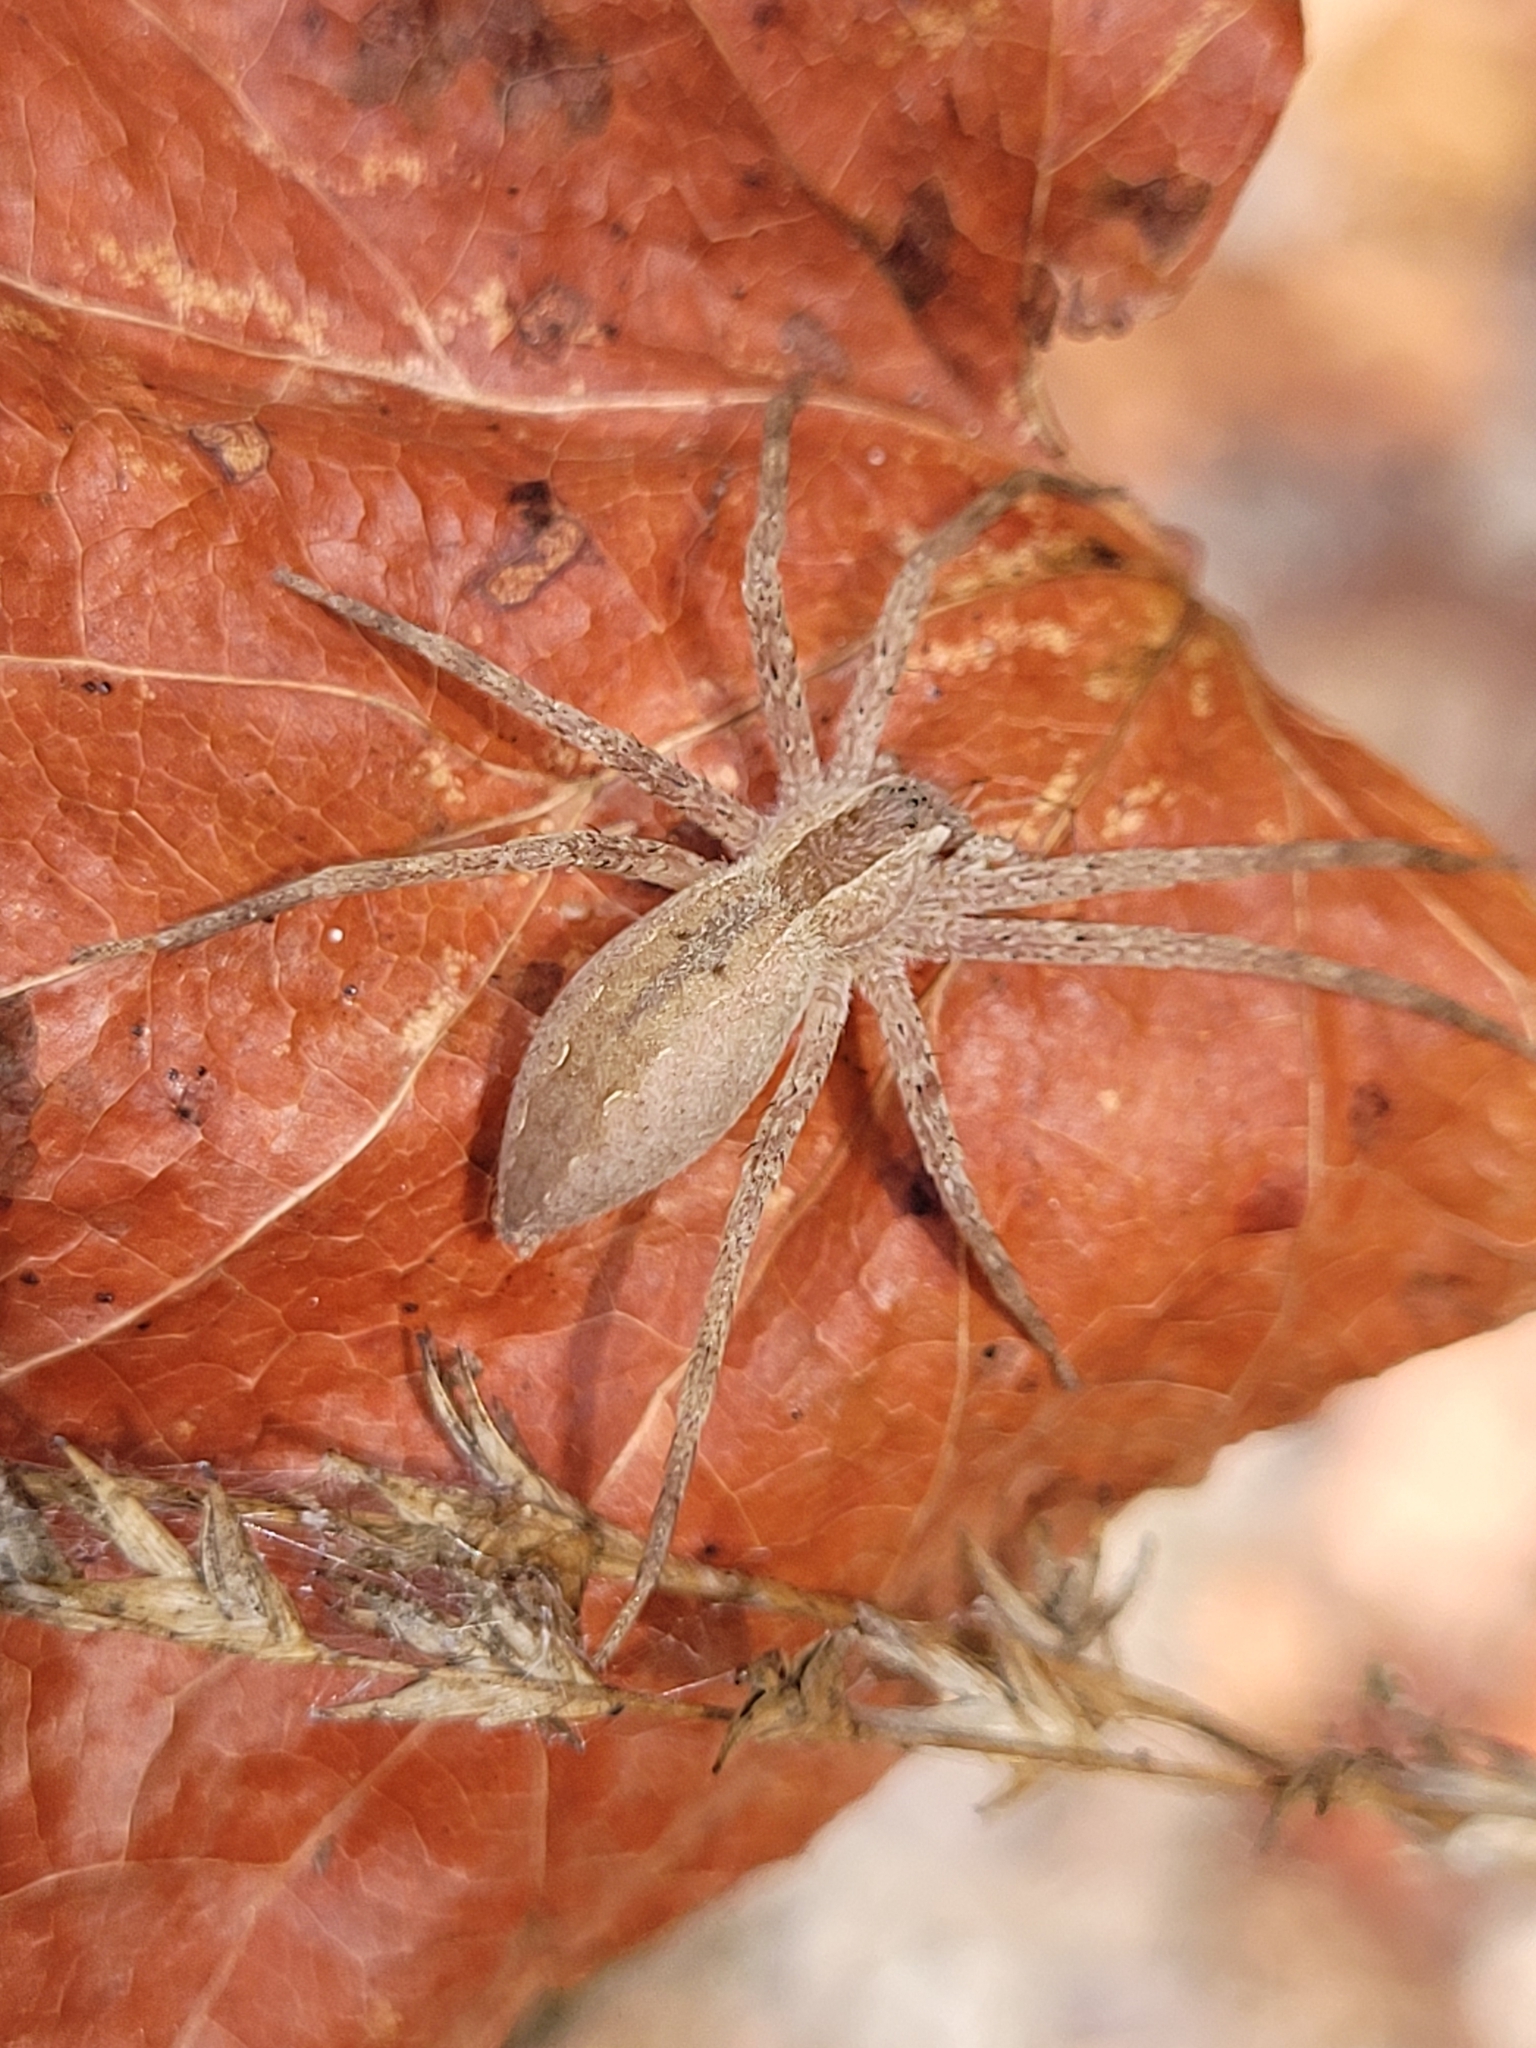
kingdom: Animalia
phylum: Arthropoda
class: Arachnida
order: Araneae
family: Pisauridae
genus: Pisaurina
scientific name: Pisaurina mira
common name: American nursery web spider
